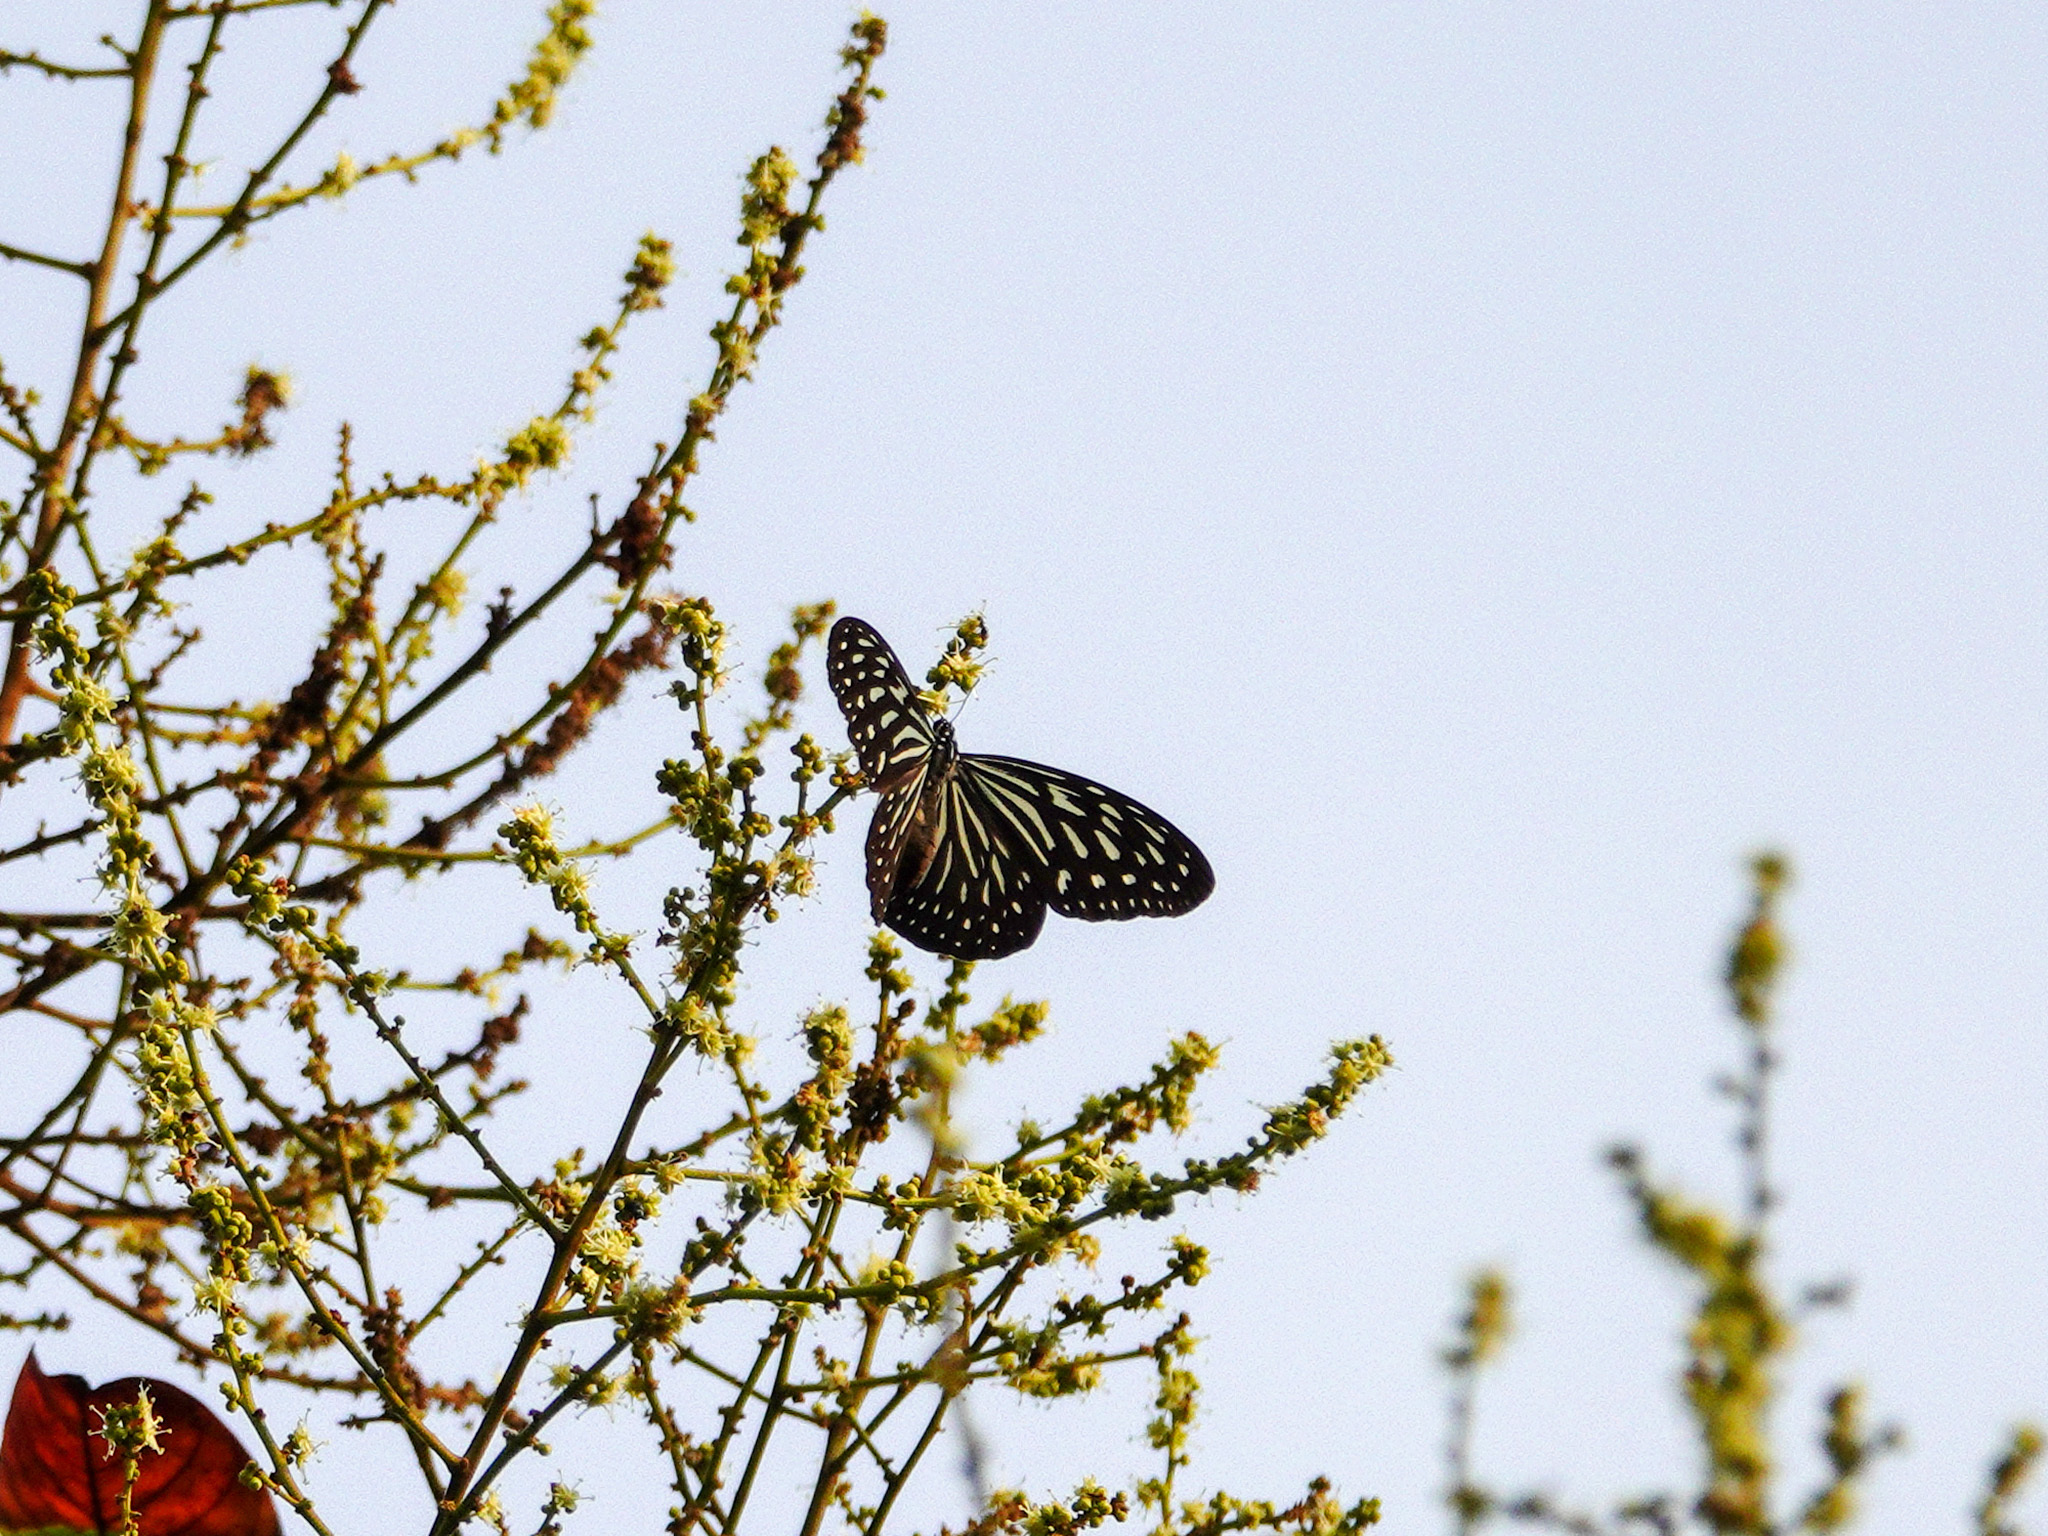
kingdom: Animalia
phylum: Arthropoda
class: Insecta
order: Lepidoptera
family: Nymphalidae
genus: Ideopsis
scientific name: Ideopsis vulgaris
